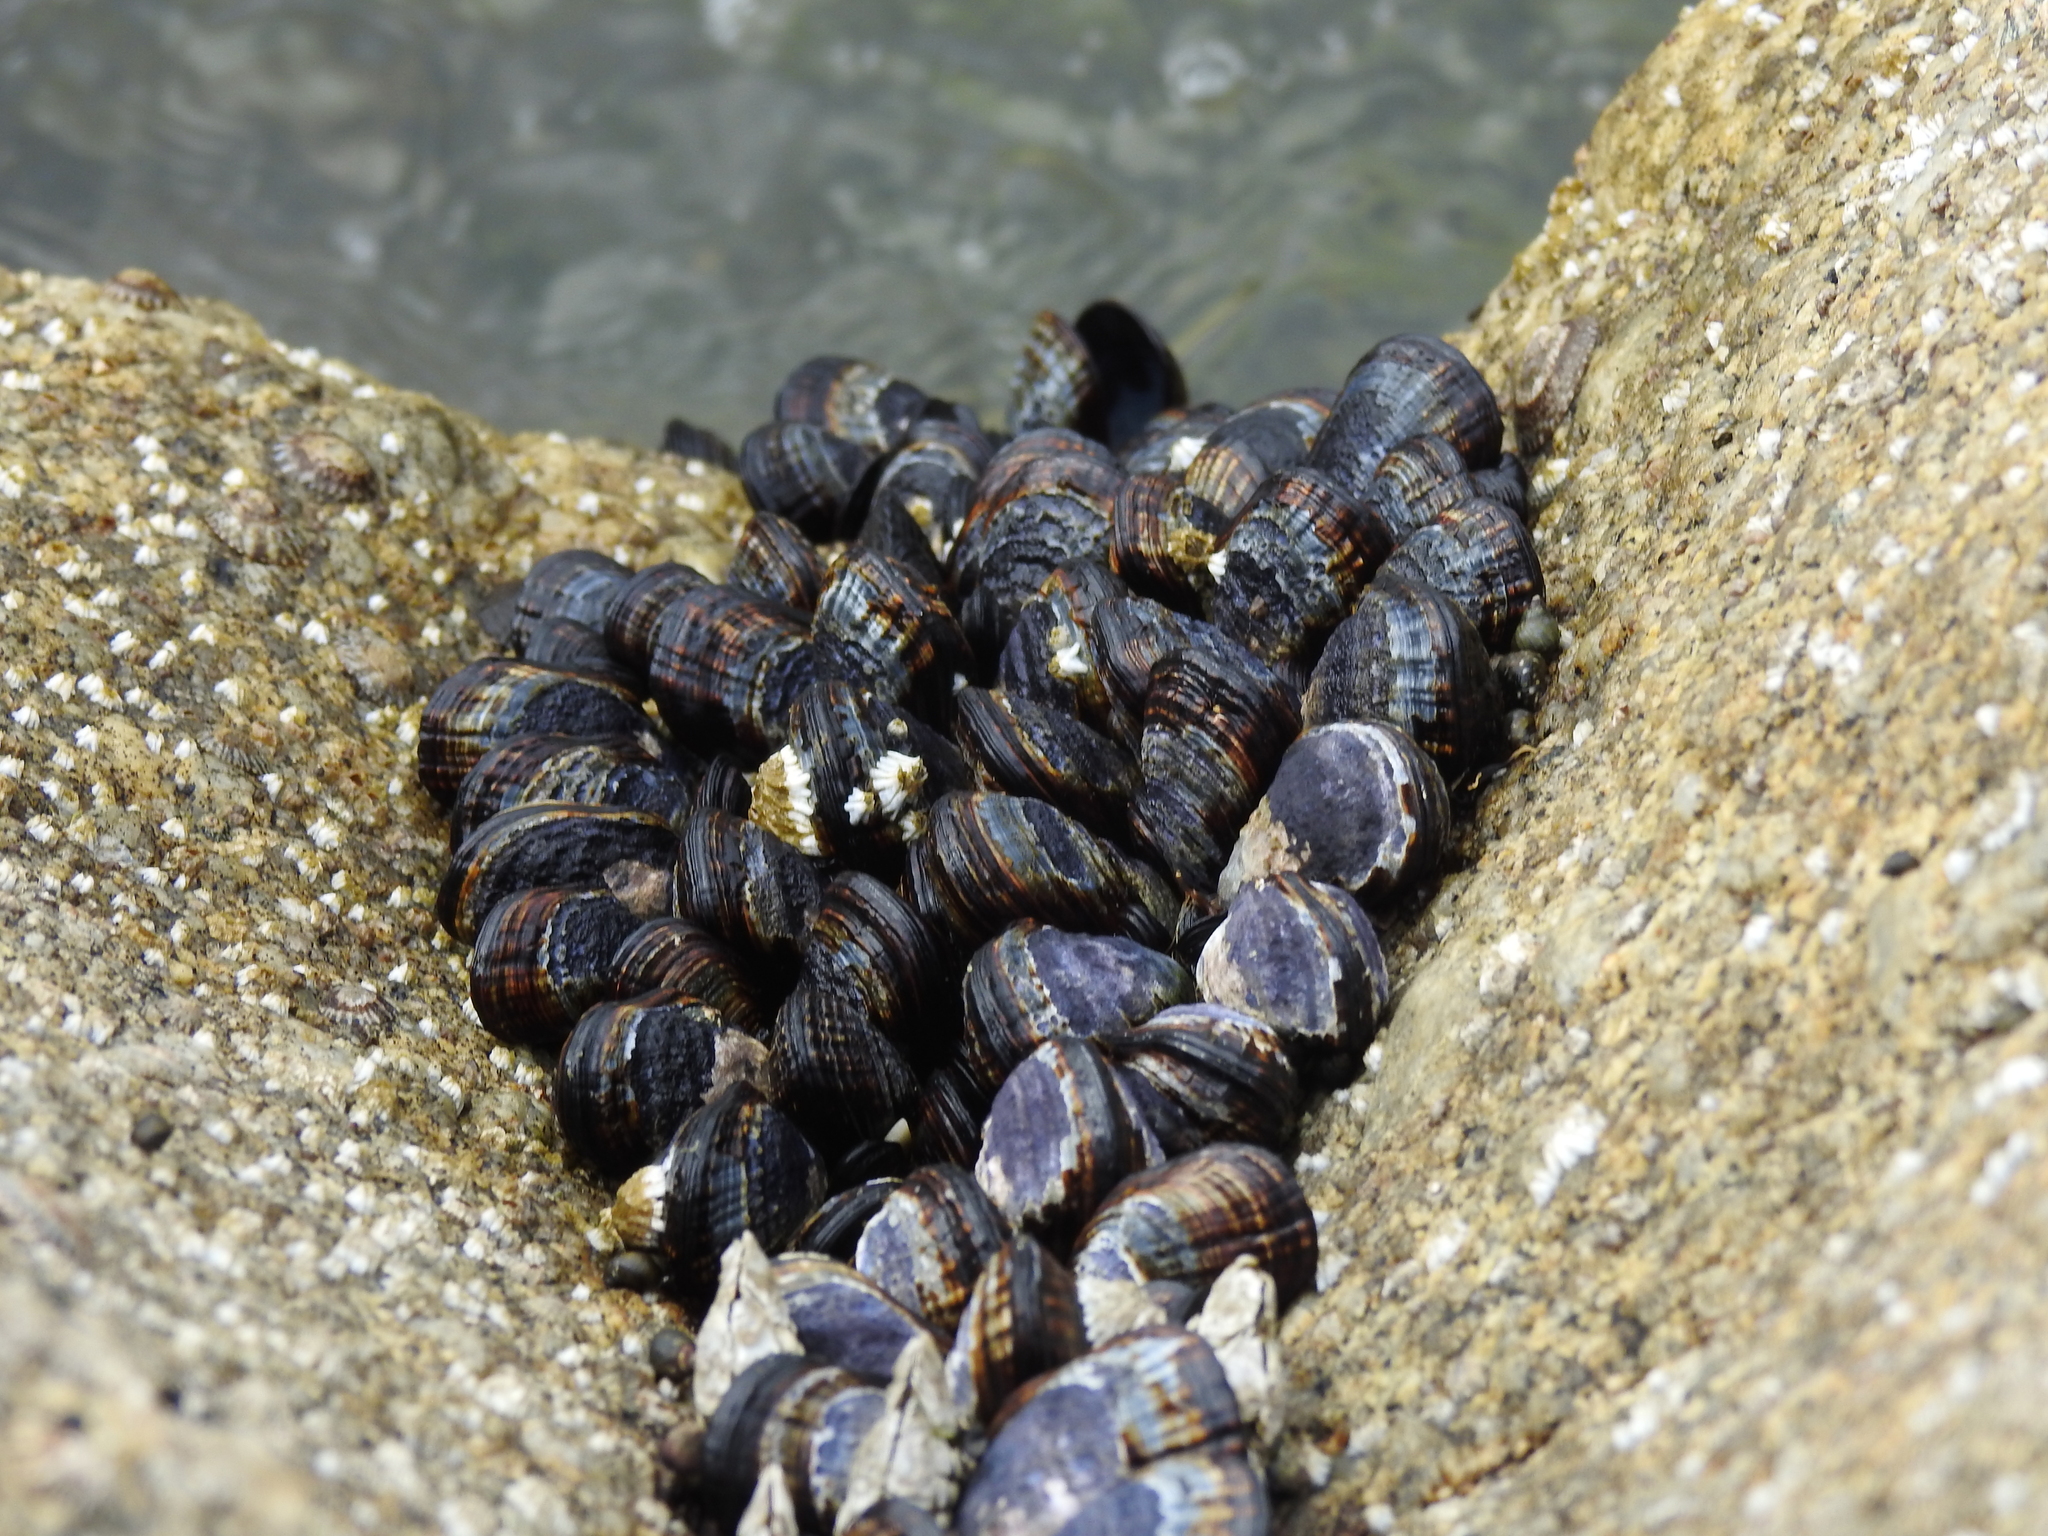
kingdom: Animalia
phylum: Mollusca
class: Bivalvia
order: Mytilida
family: Mytilidae
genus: Mytilus
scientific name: Mytilus californianus
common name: California mussel
